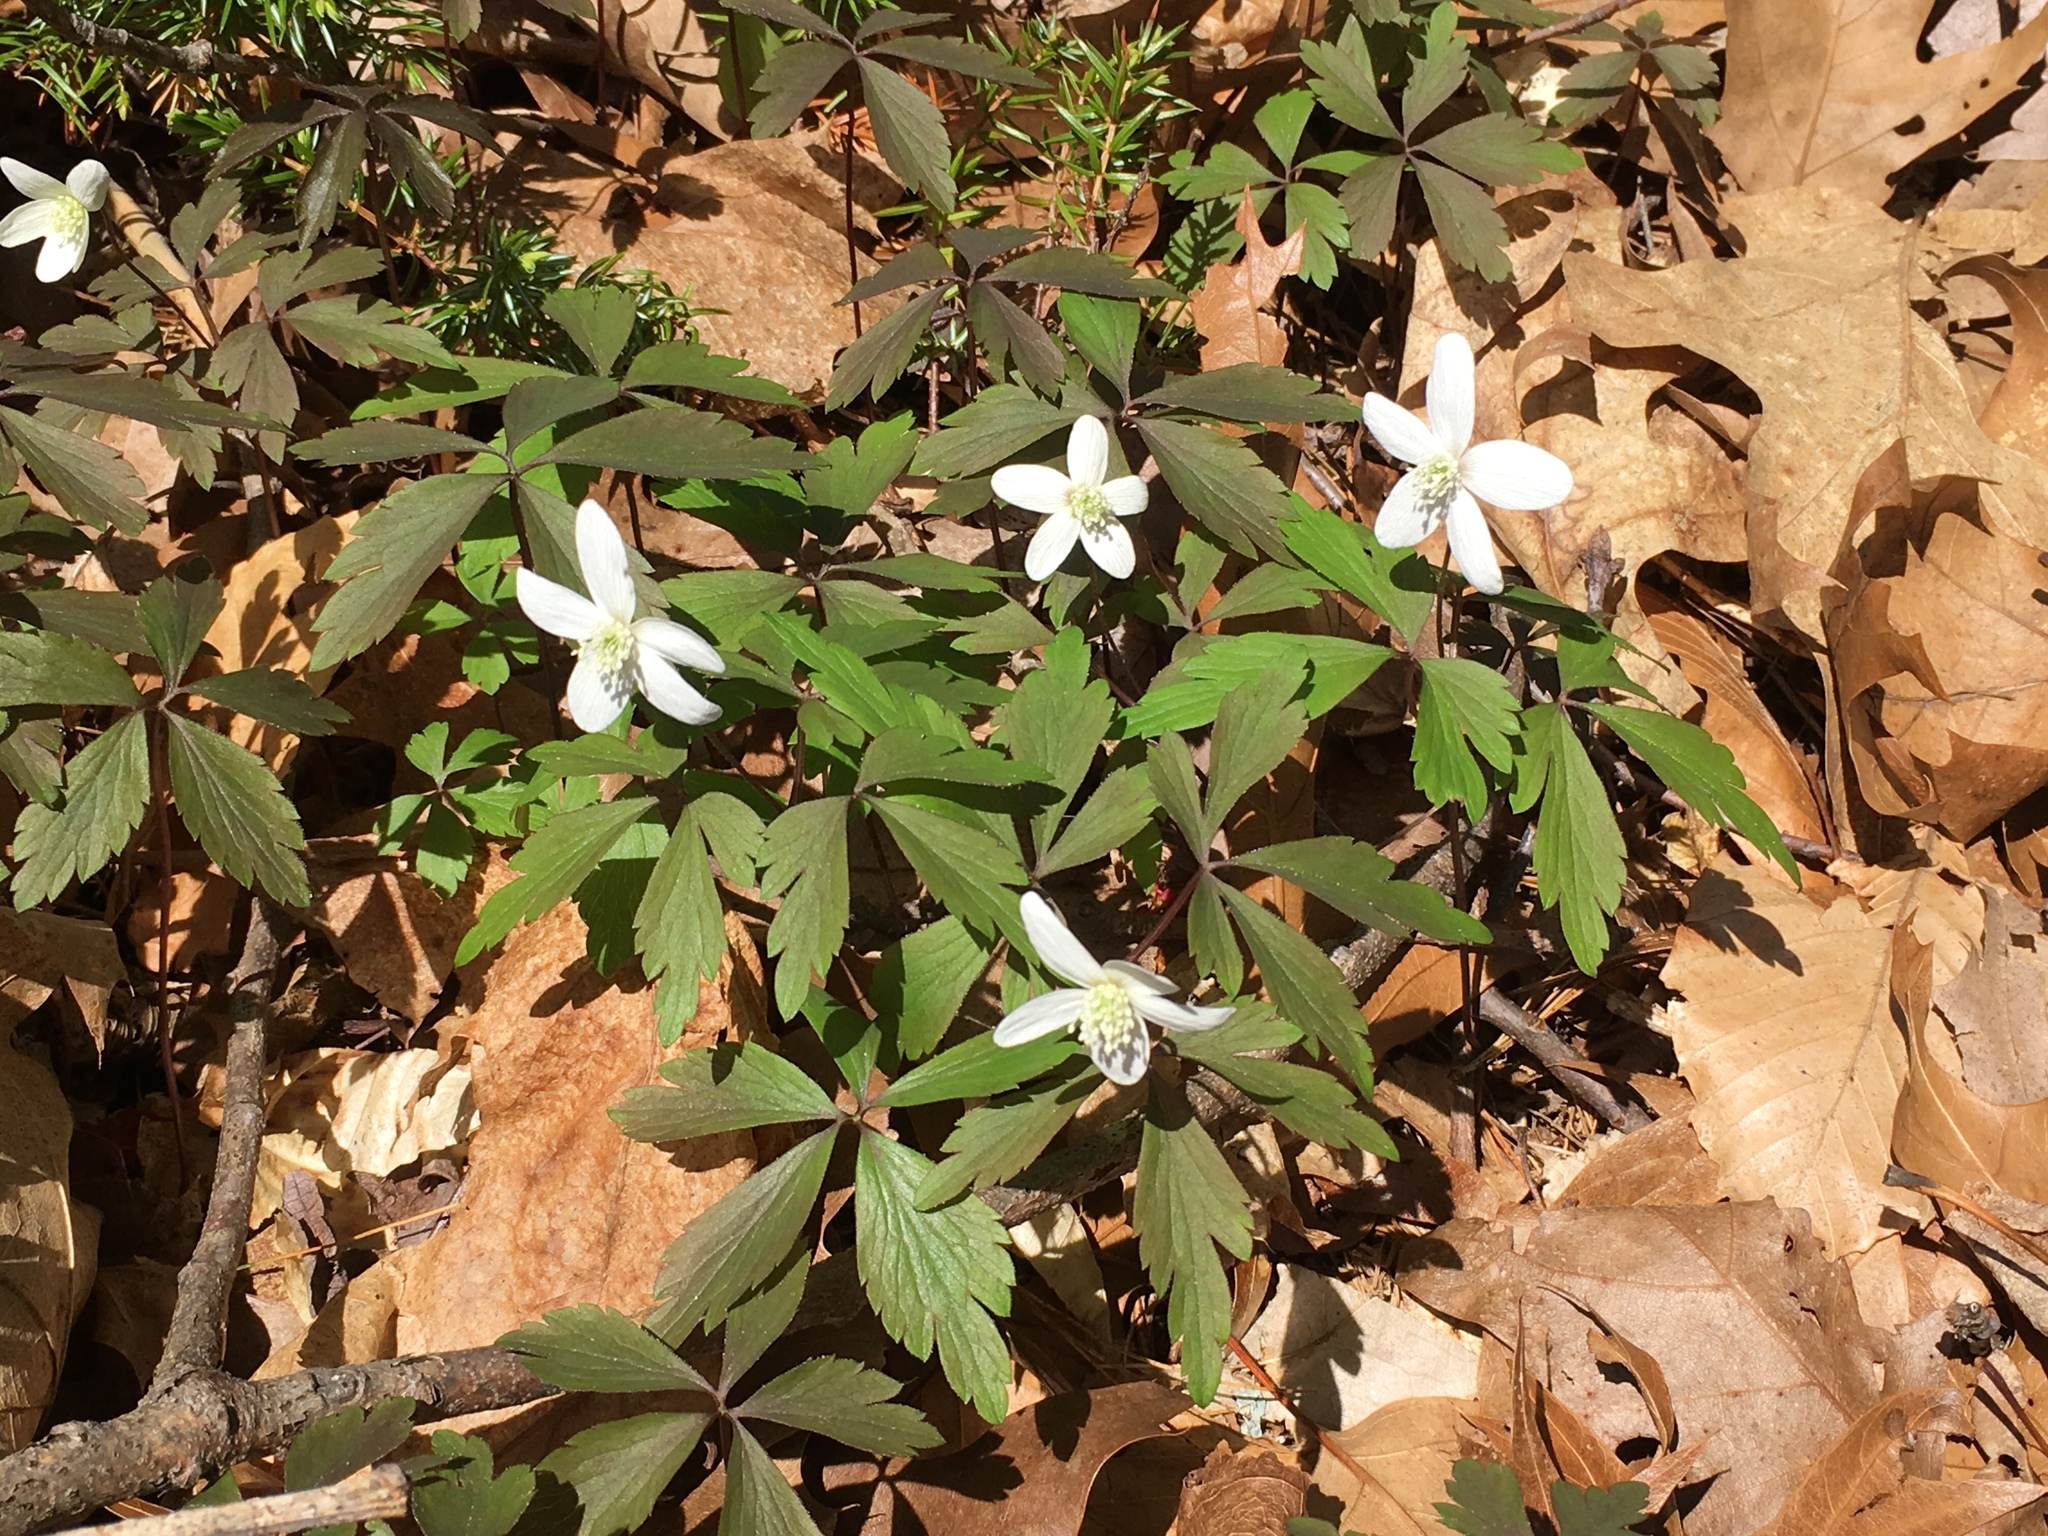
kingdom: Plantae
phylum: Tracheophyta
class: Magnoliopsida
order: Ranunculales
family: Ranunculaceae
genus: Anemone
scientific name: Anemone quinquefolia
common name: Wood anemone
